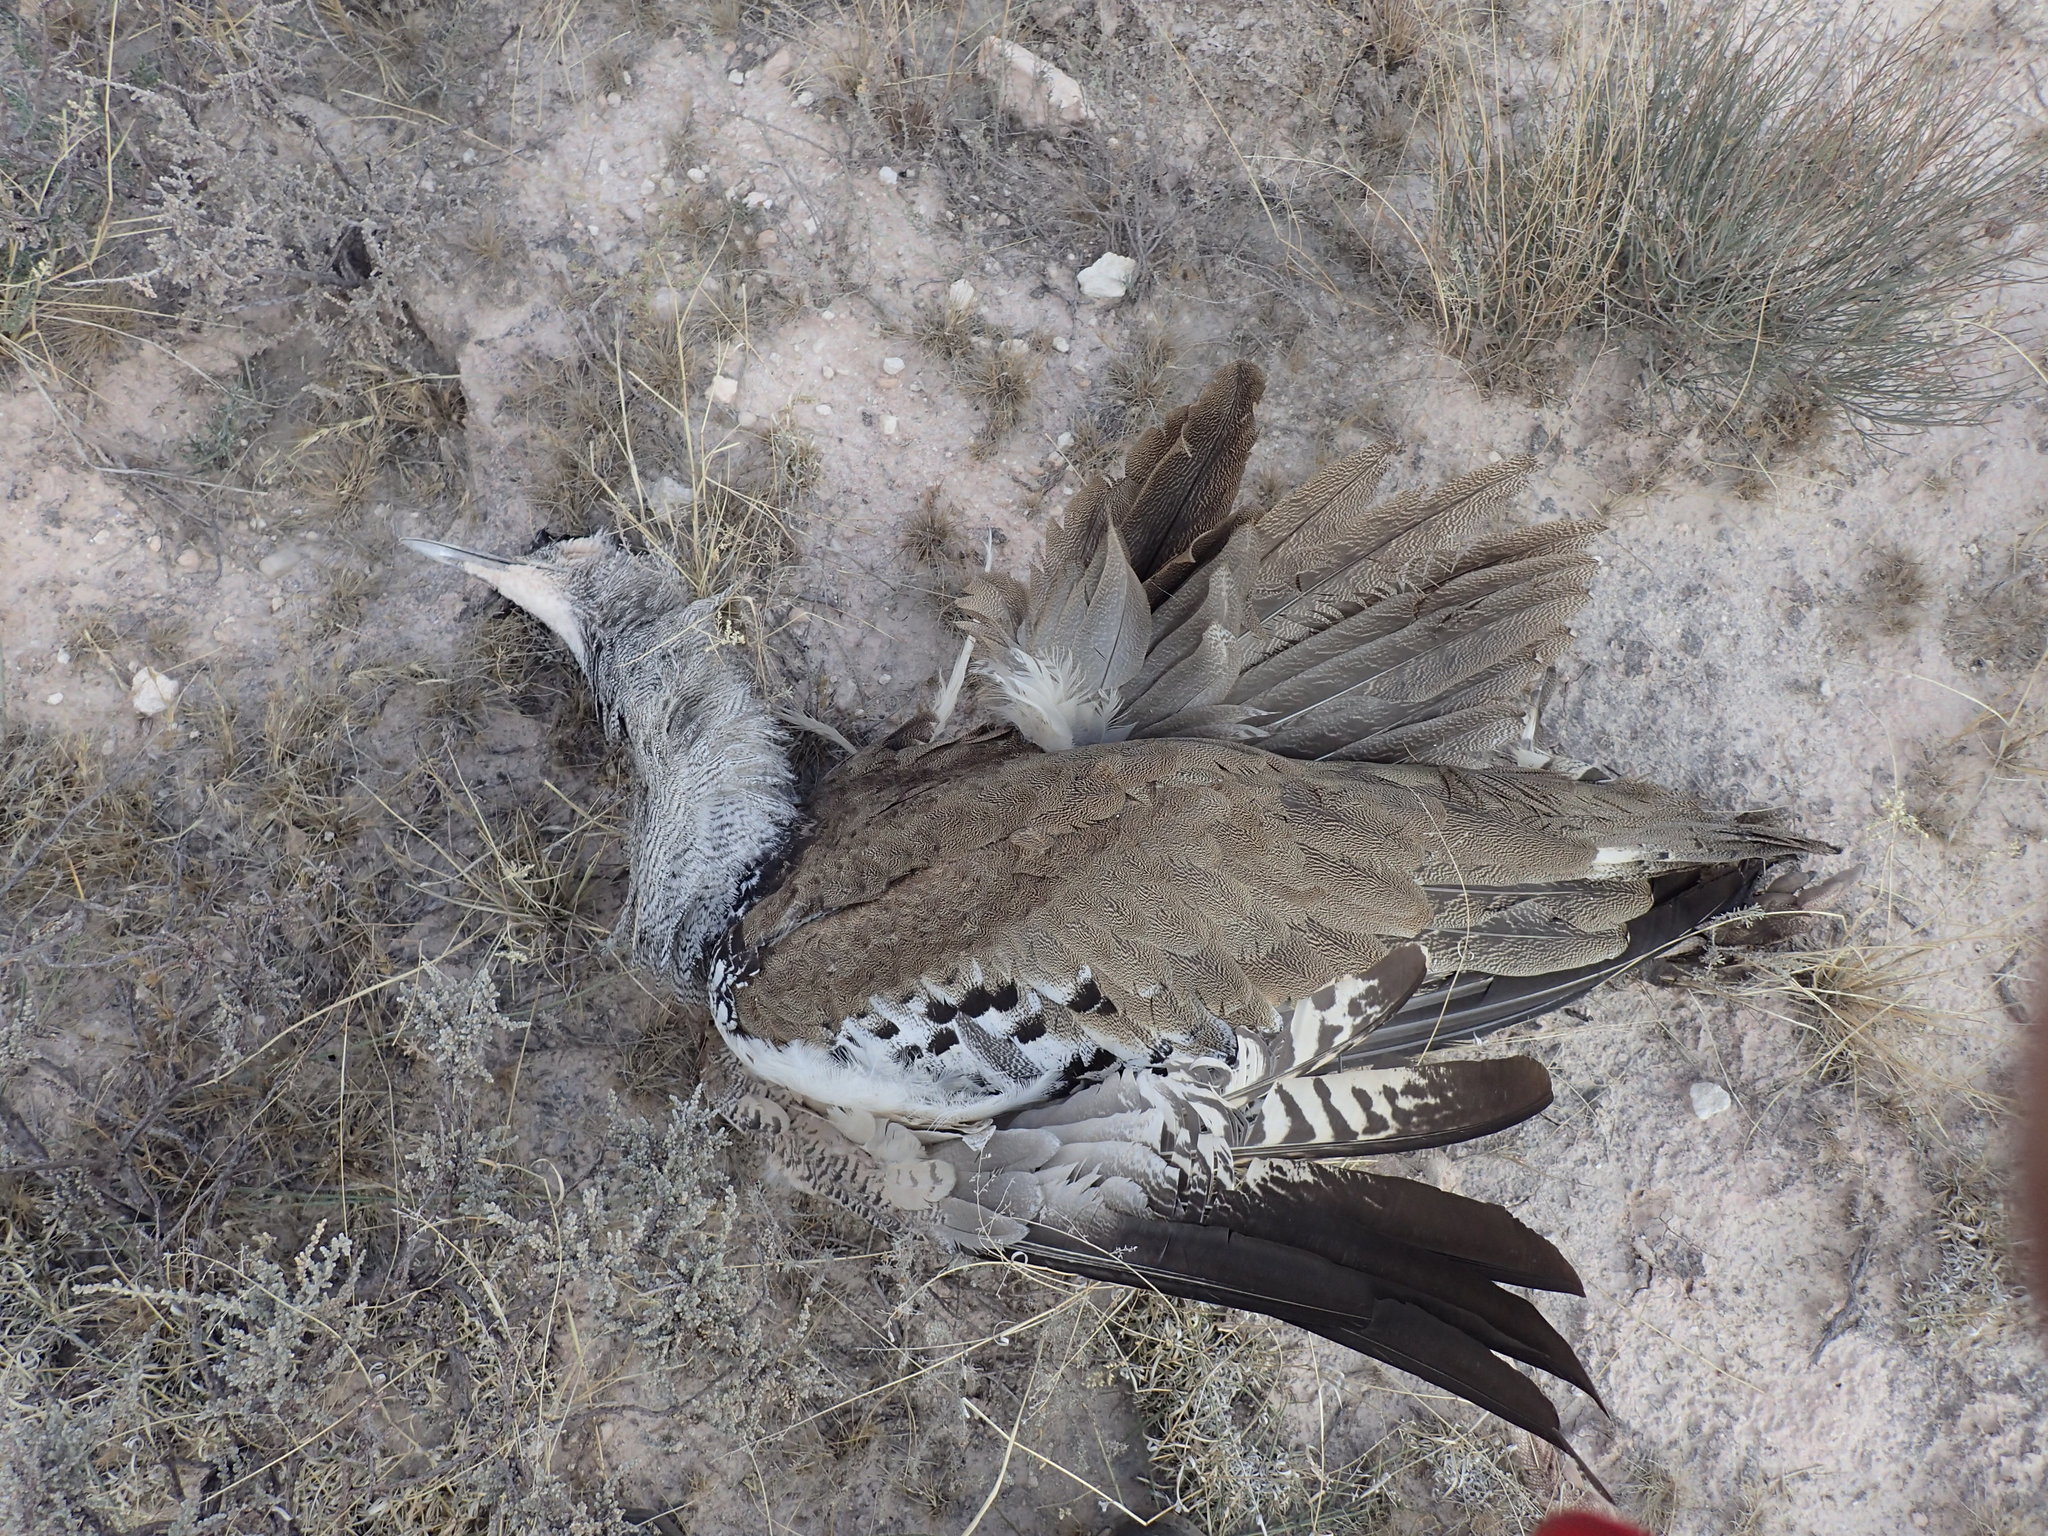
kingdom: Animalia
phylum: Chordata
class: Aves
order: Otidiformes
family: Otididae
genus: Ardeotis
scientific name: Ardeotis kori
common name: Kori bustard
